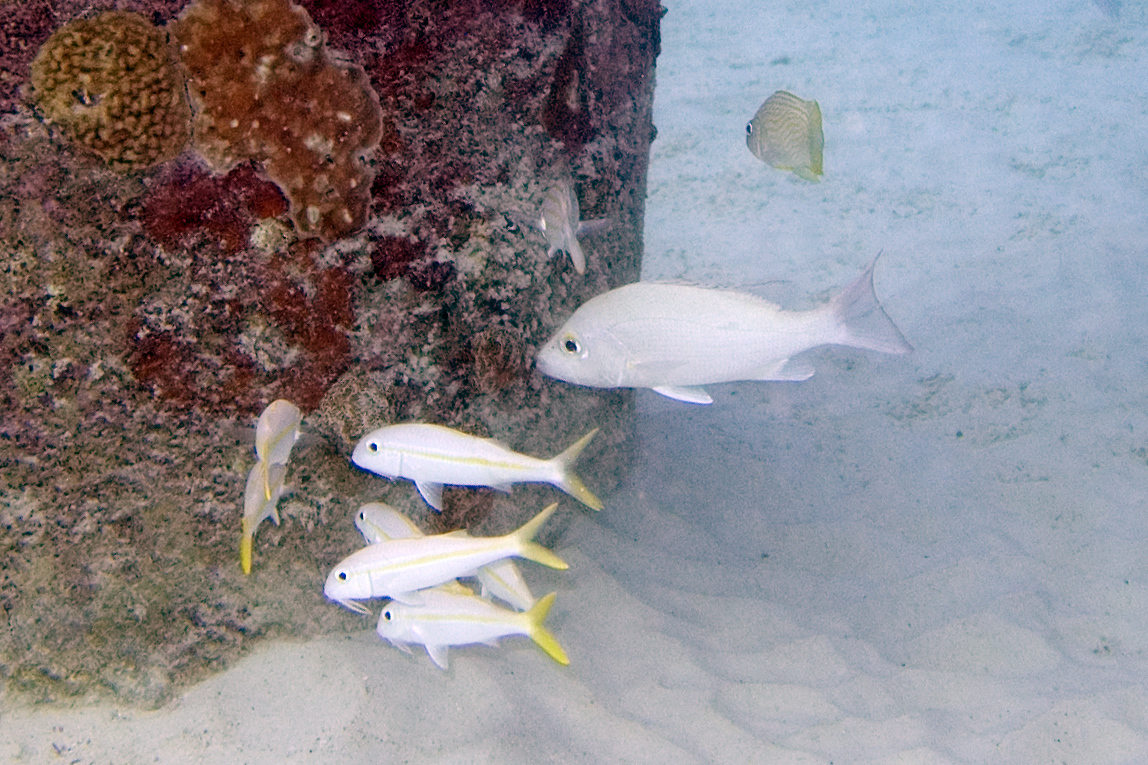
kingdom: Animalia
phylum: Chordata
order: Perciformes
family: Lutjanidae
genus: Lutjanus
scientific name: Lutjanus mahogoni
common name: Spot snapper
